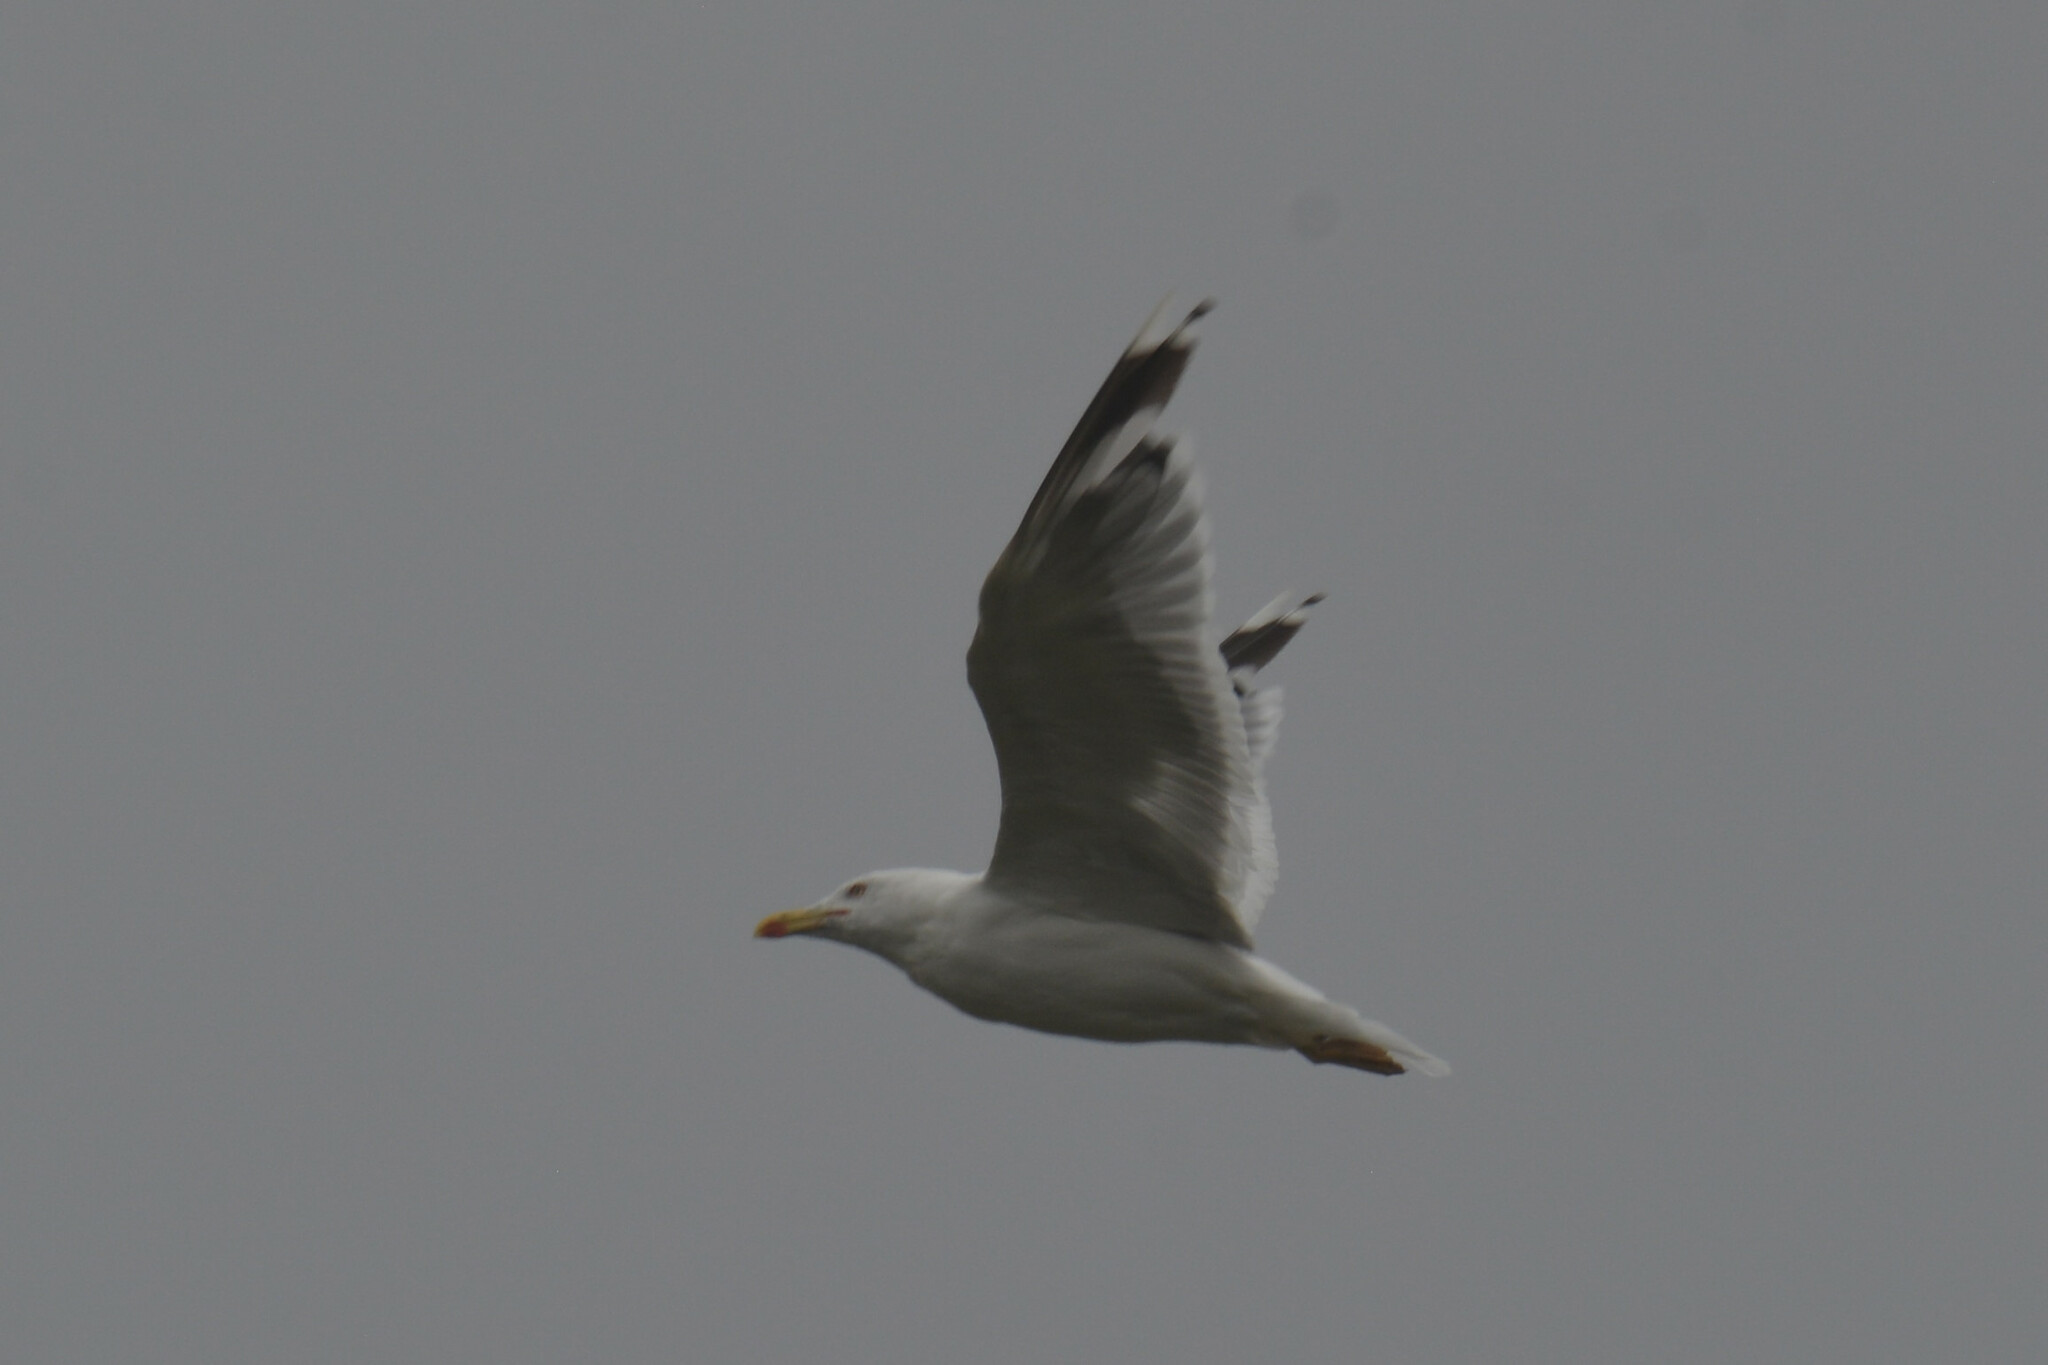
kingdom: Animalia
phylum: Chordata
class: Aves
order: Charadriiformes
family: Laridae
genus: Larus
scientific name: Larus argentatus
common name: Herring gull
